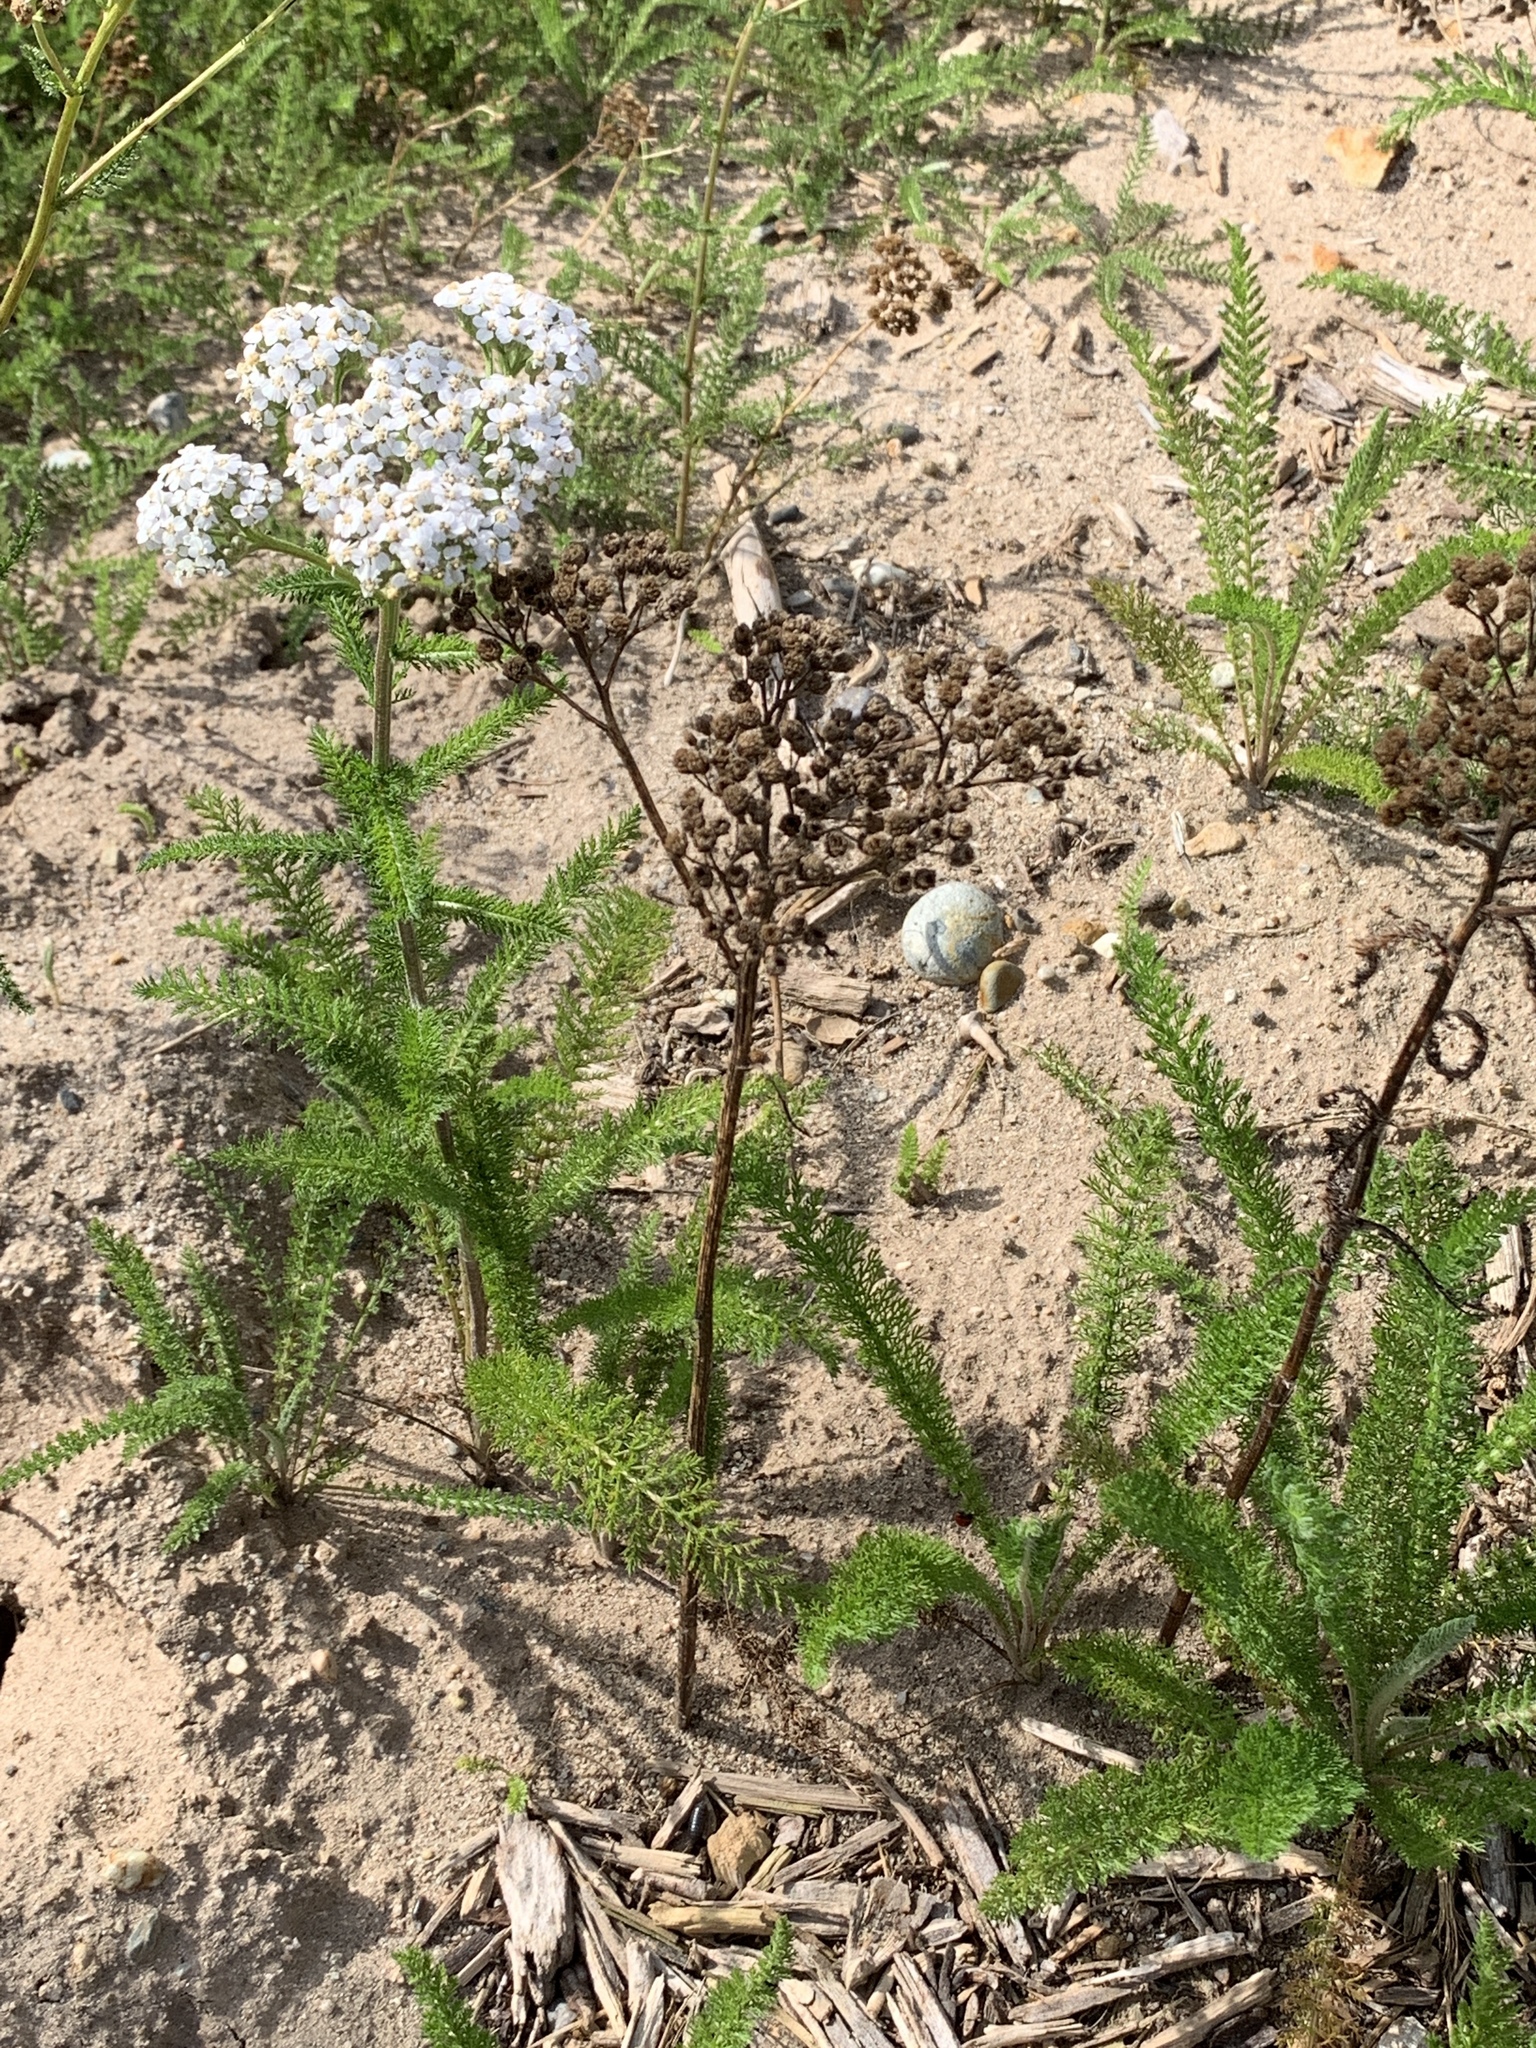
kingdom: Plantae
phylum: Tracheophyta
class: Magnoliopsida
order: Asterales
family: Asteraceae
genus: Achillea
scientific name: Achillea millefolium
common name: Yarrow
